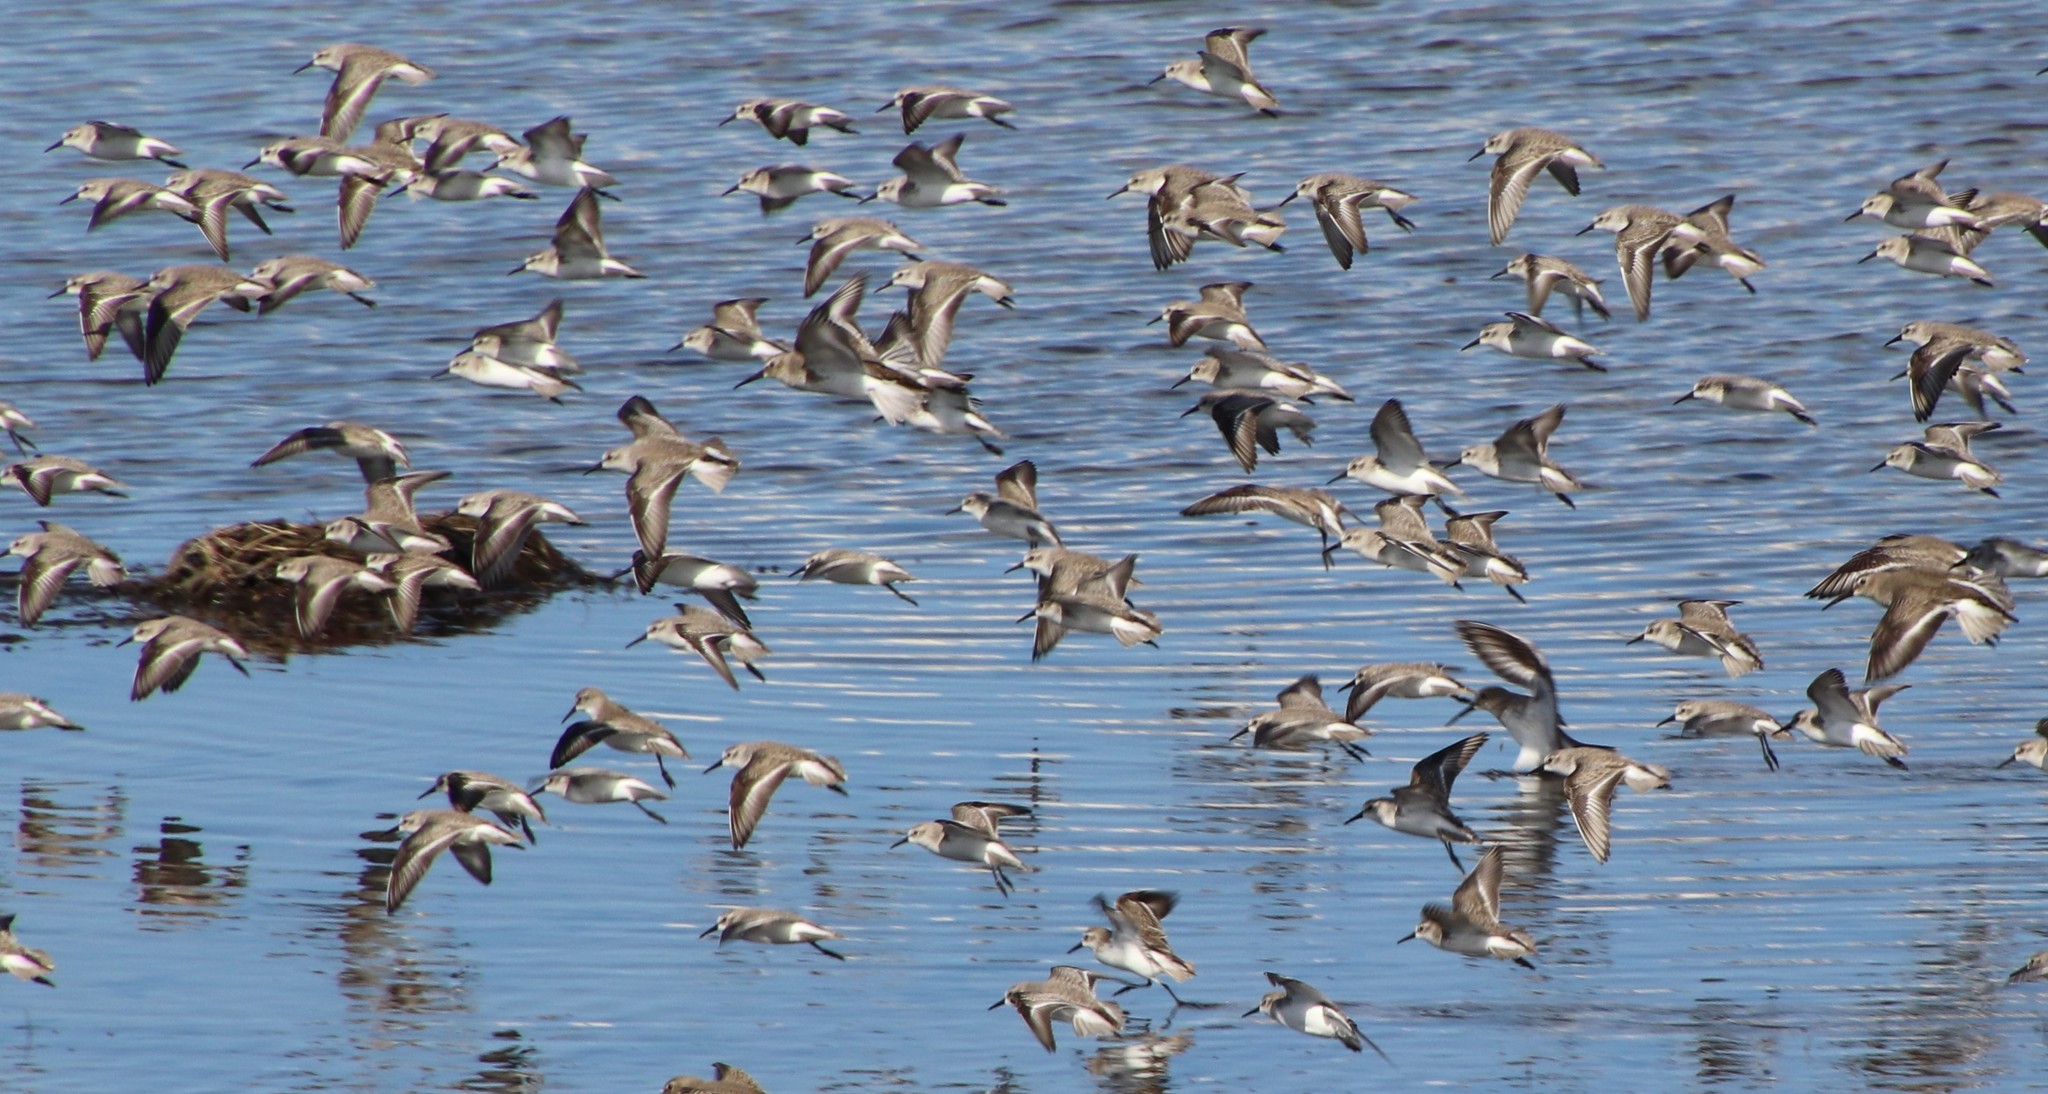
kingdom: Animalia
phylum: Chordata
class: Aves
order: Charadriiformes
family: Scolopacidae
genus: Calidris
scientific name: Calidris mauri
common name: Western sandpiper
